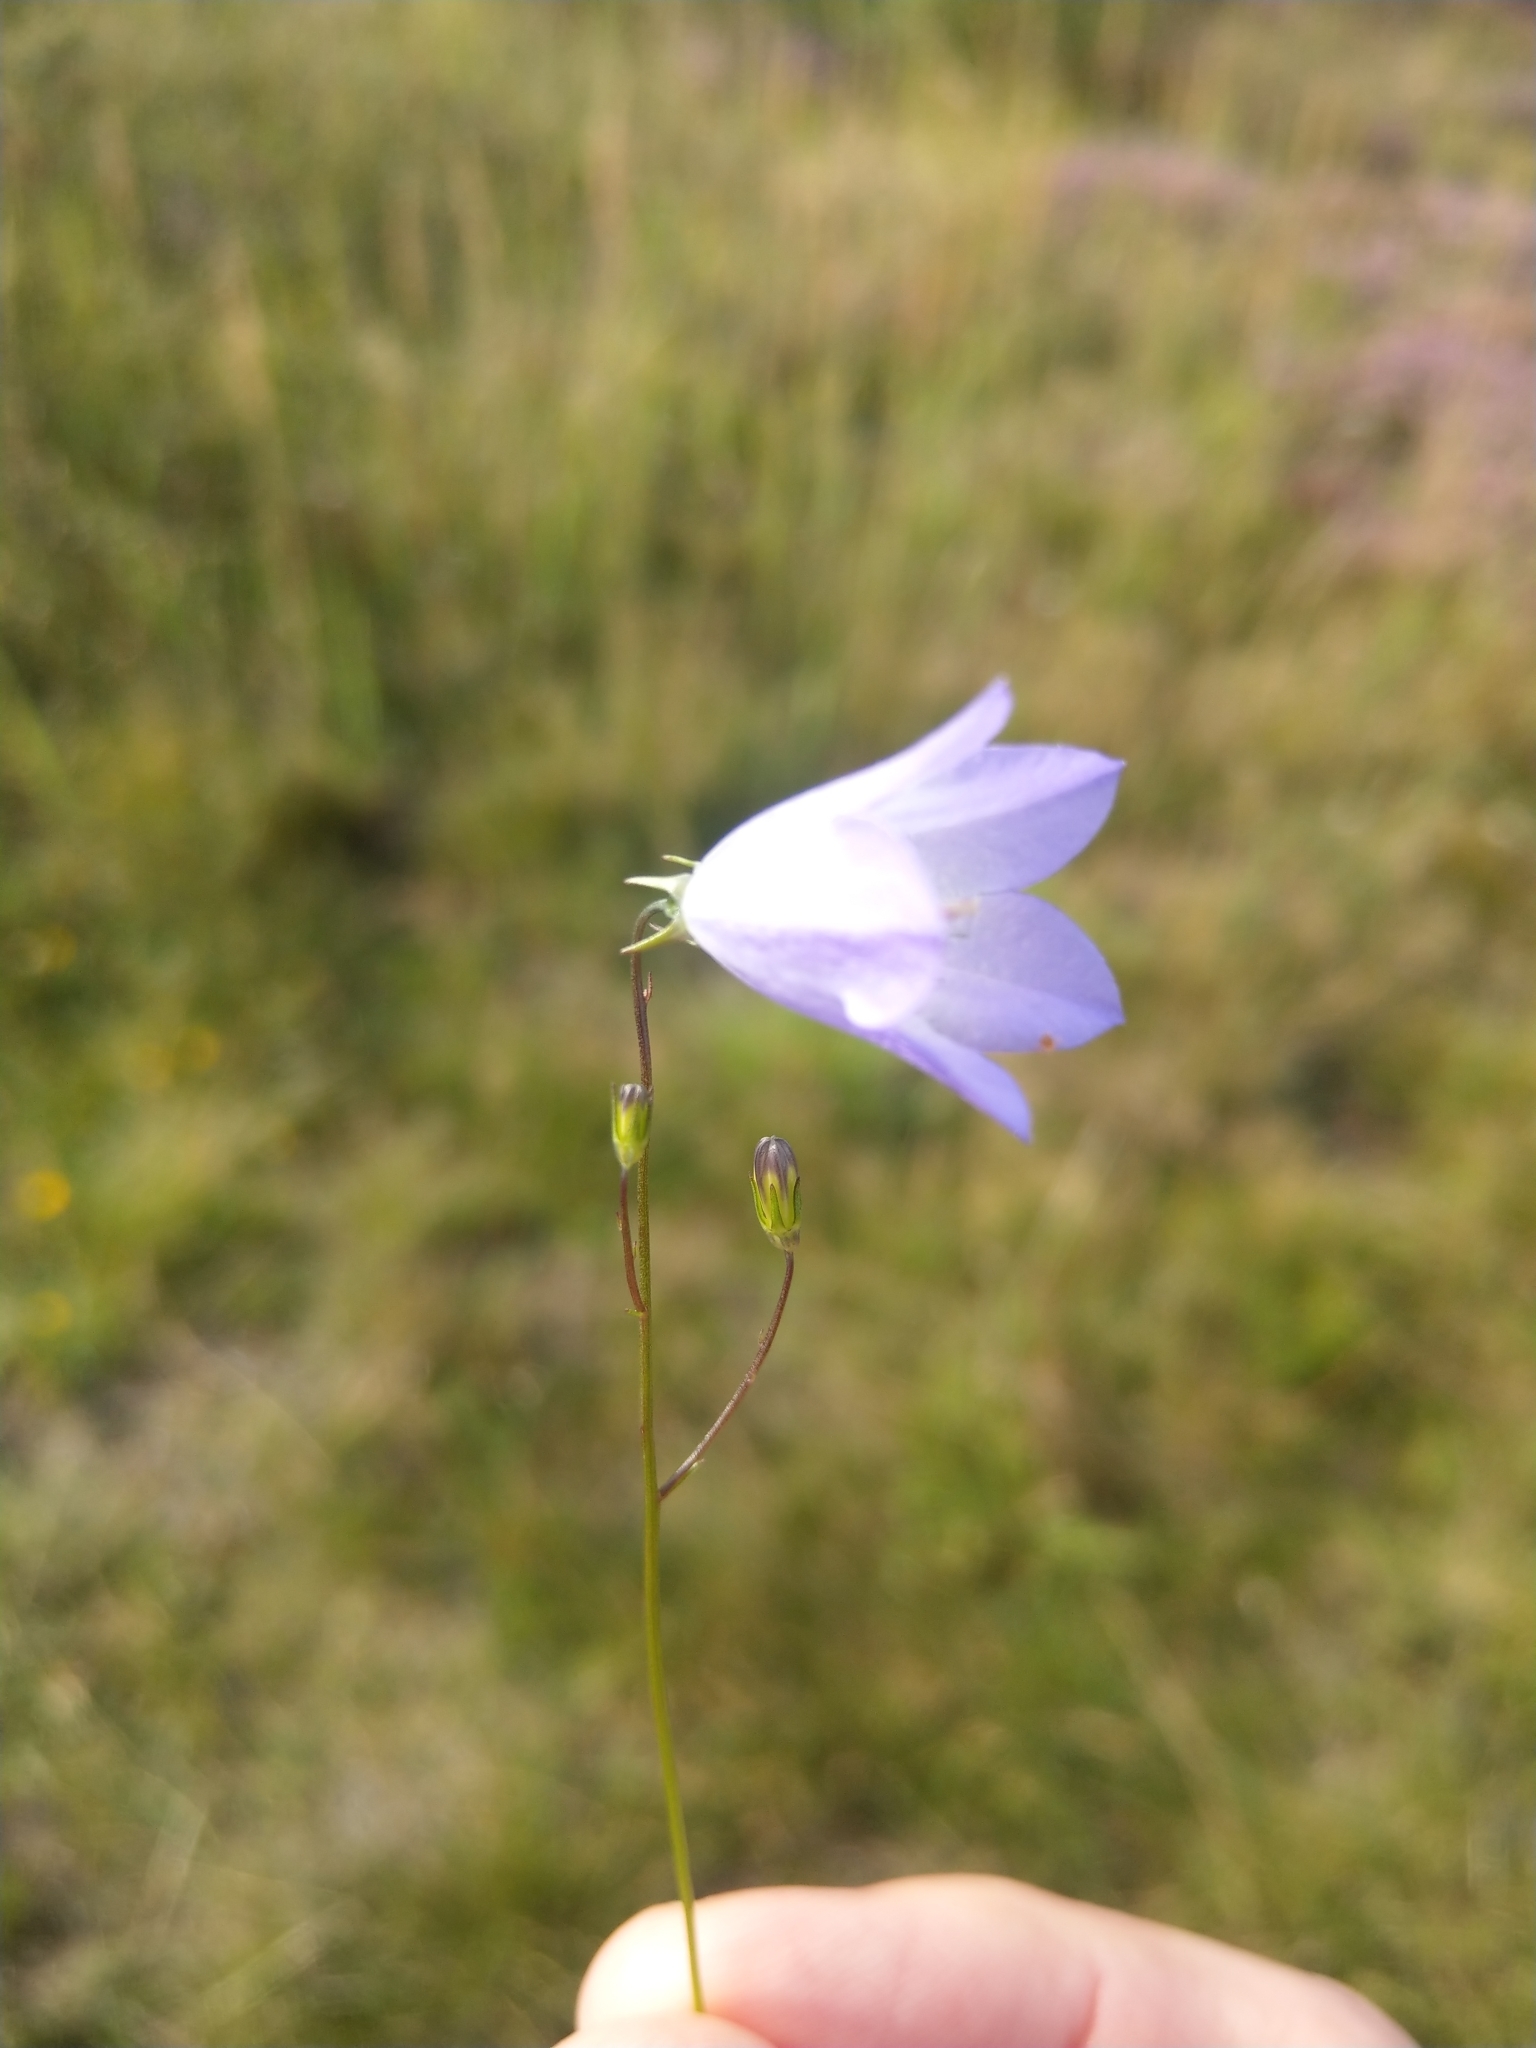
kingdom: Plantae
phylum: Tracheophyta
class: Magnoliopsida
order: Asterales
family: Campanulaceae
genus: Campanula
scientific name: Campanula rotundifolia
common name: Harebell
